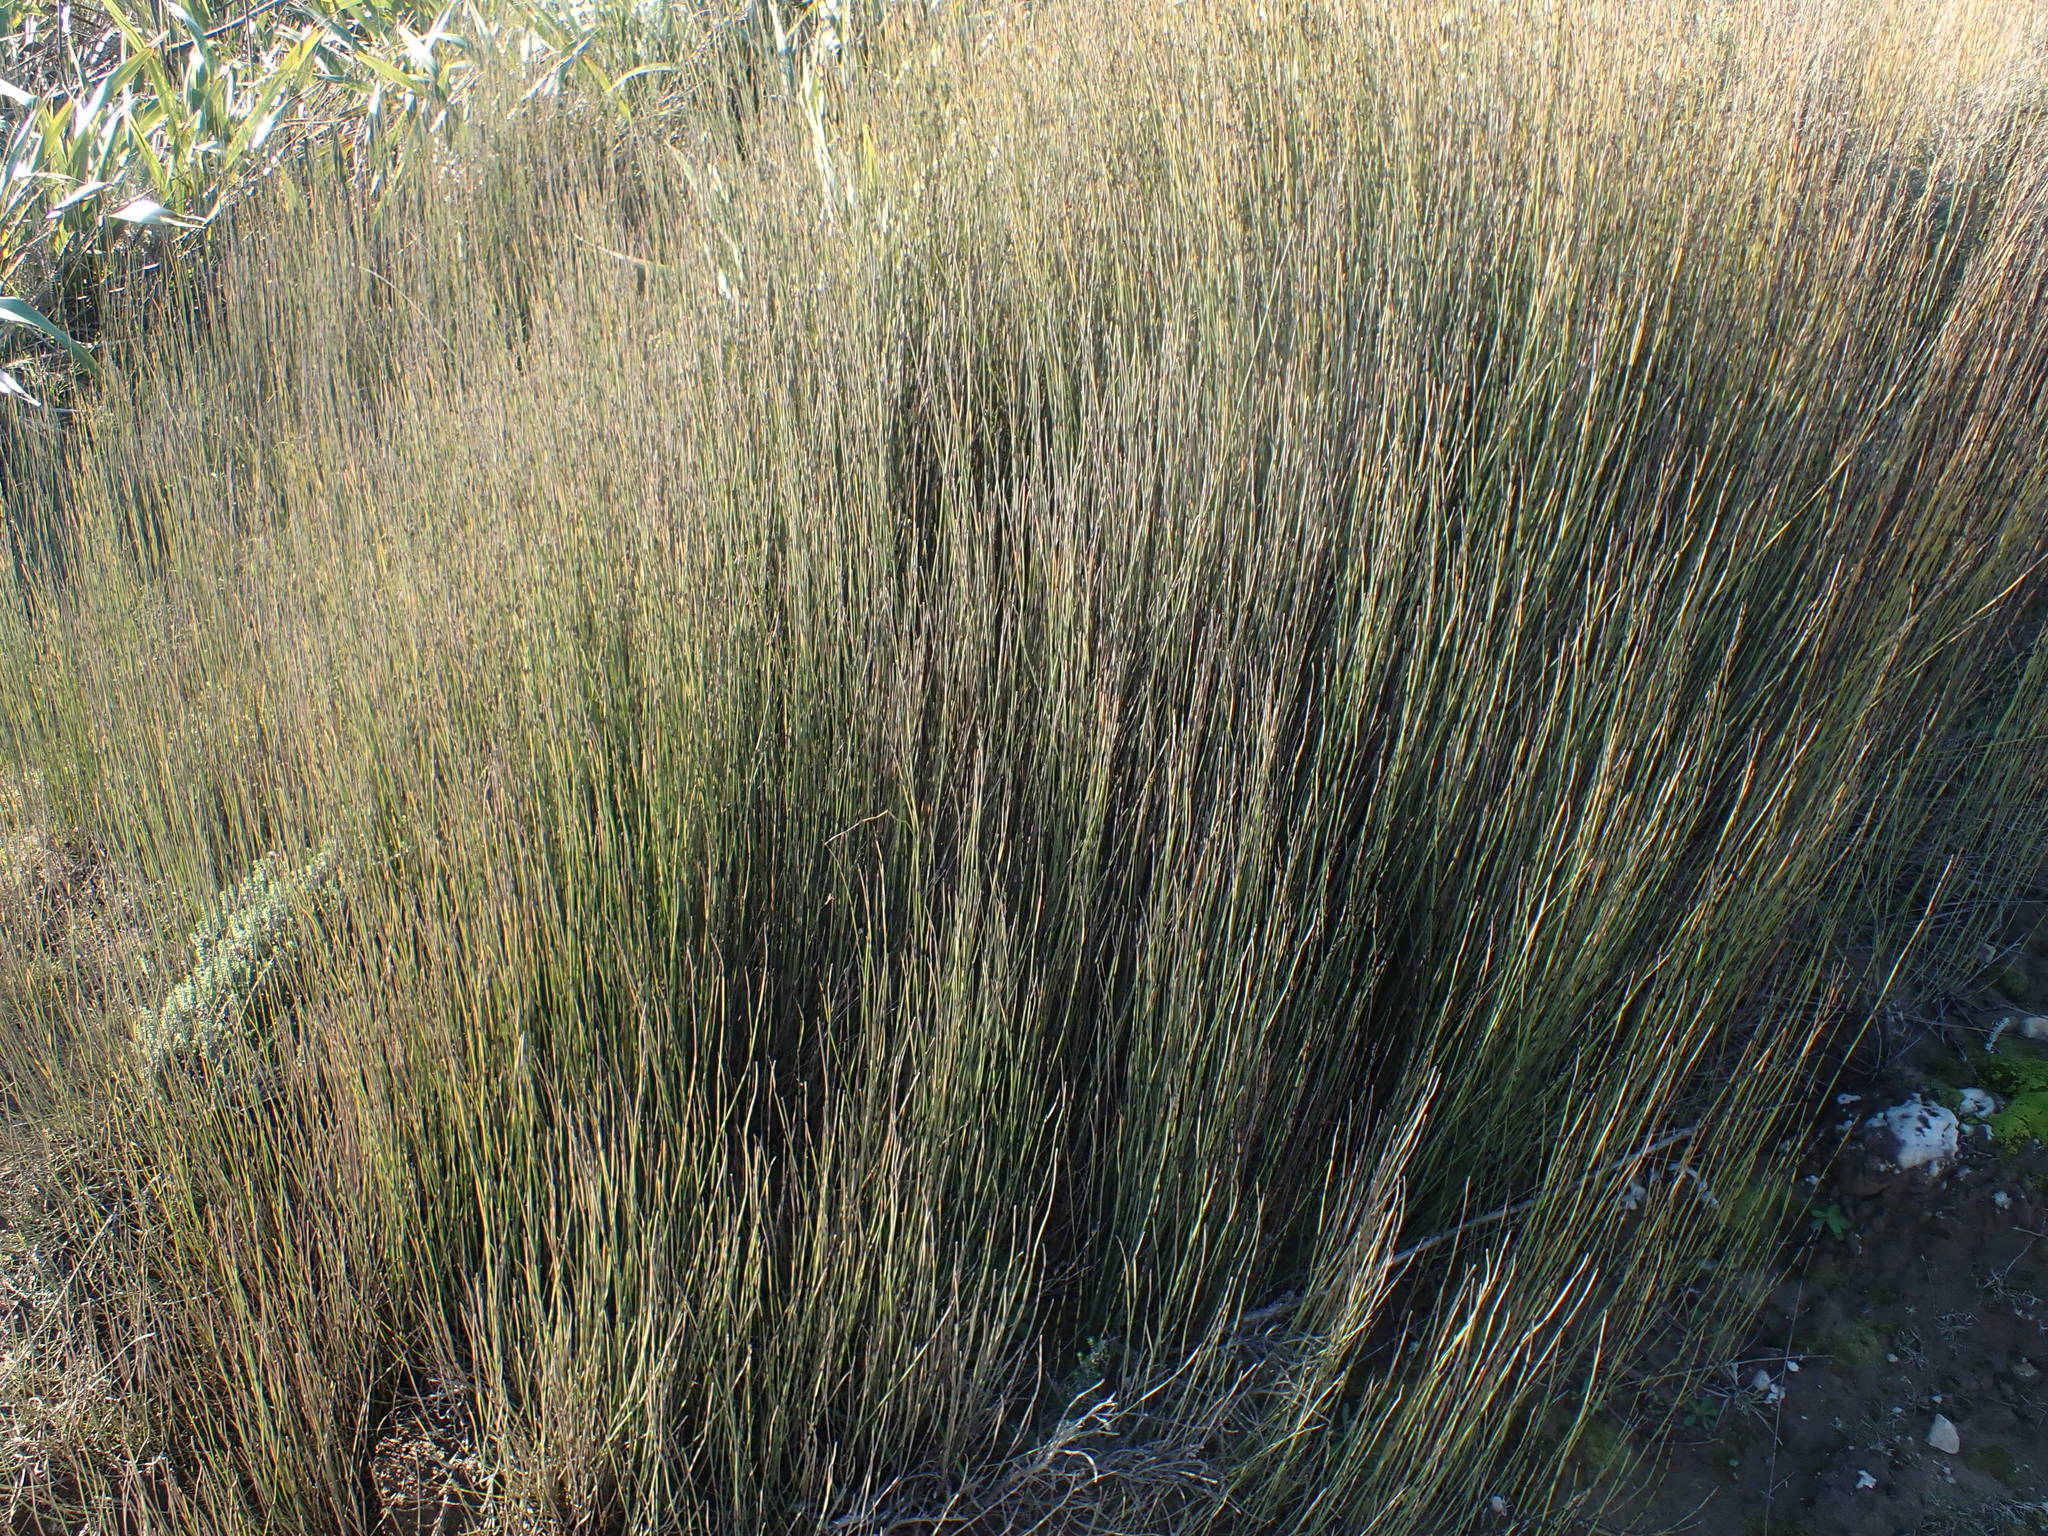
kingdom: Plantae
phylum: Tracheophyta
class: Liliopsida
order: Poales
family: Restionaceae
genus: Apodasmia
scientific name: Apodasmia similis
